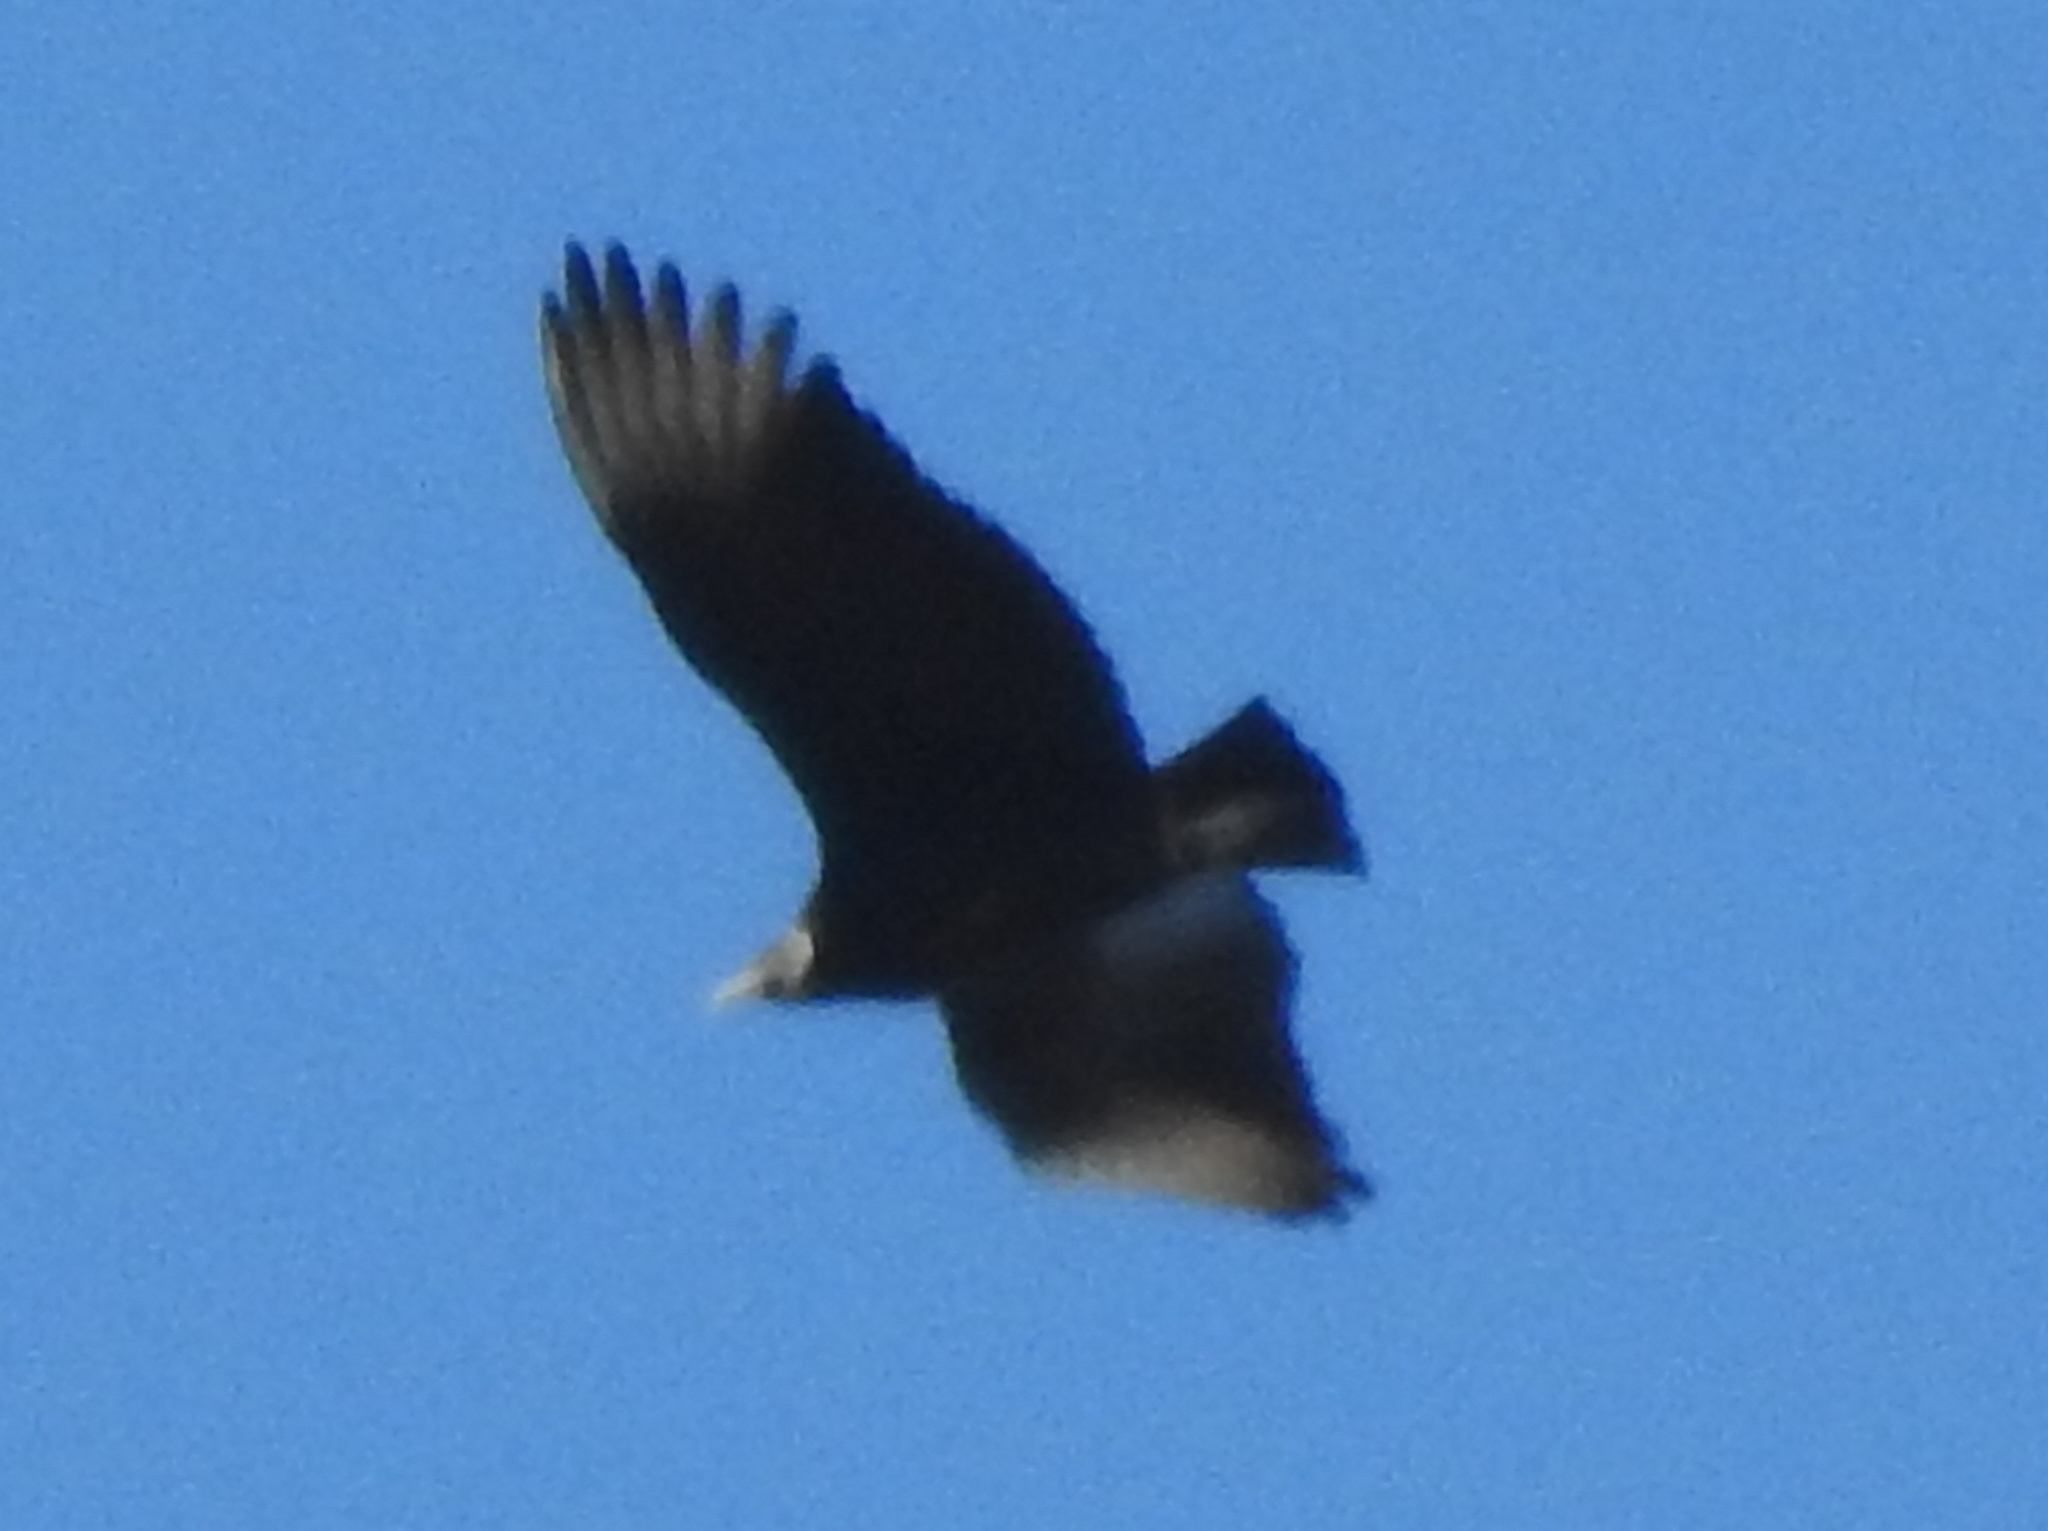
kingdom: Animalia
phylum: Chordata
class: Aves
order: Accipitriformes
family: Cathartidae
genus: Coragyps
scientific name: Coragyps atratus
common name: Black vulture
